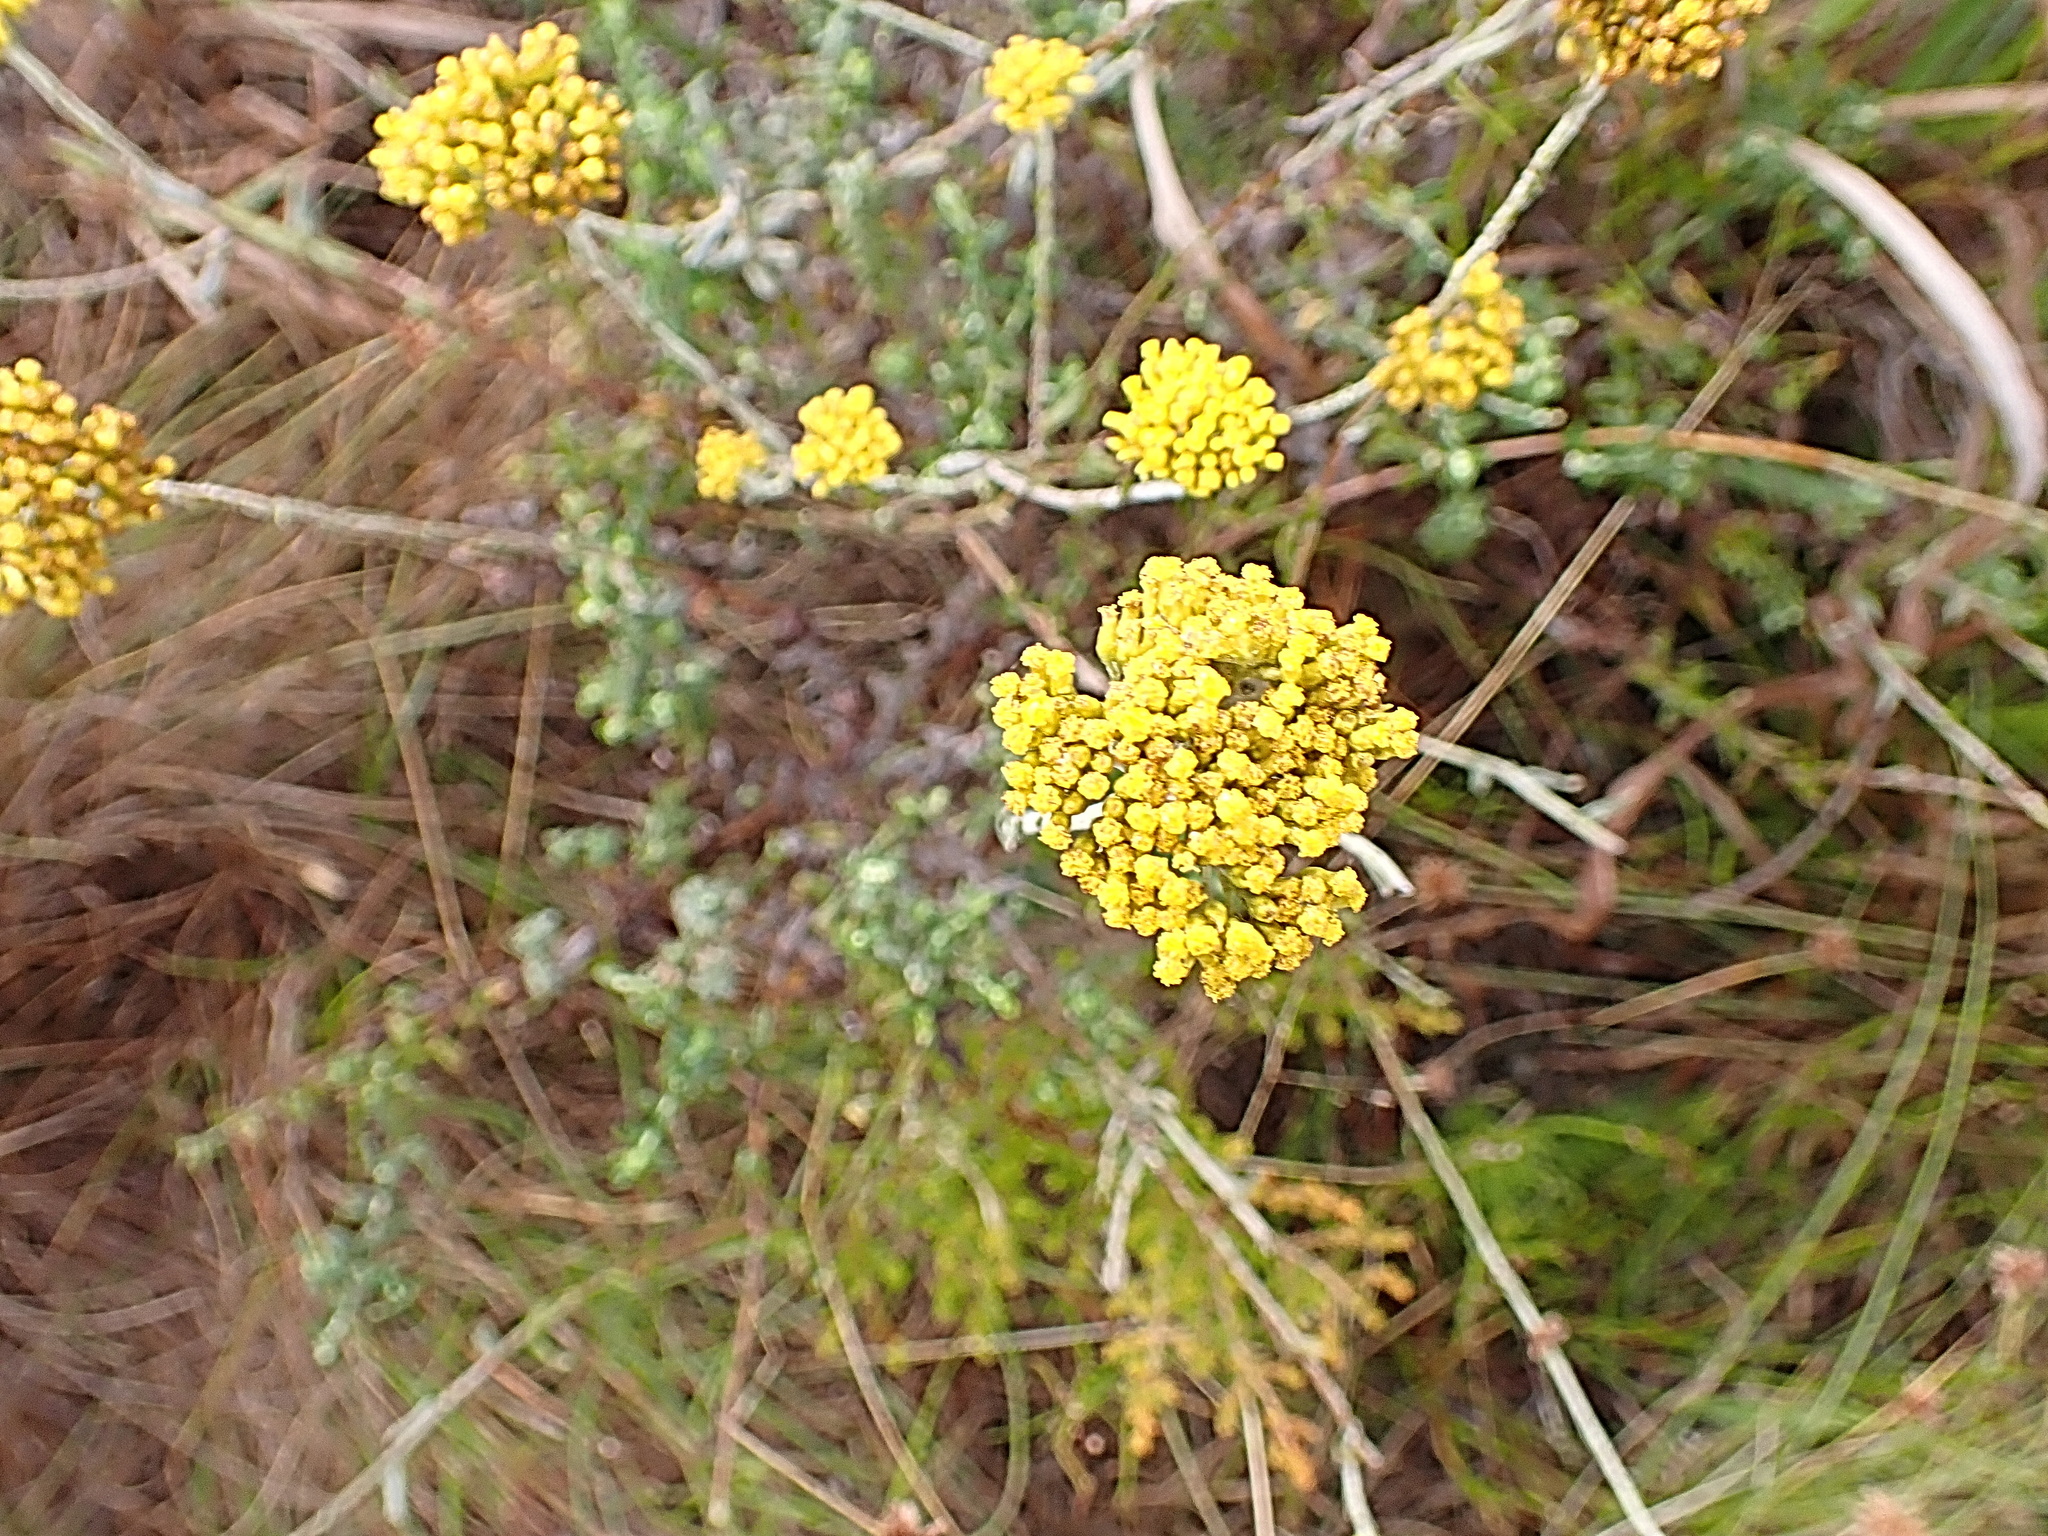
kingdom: Plantae
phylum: Tracheophyta
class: Magnoliopsida
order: Asterales
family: Asteraceae
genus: Helichrysum
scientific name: Helichrysum cymosum
